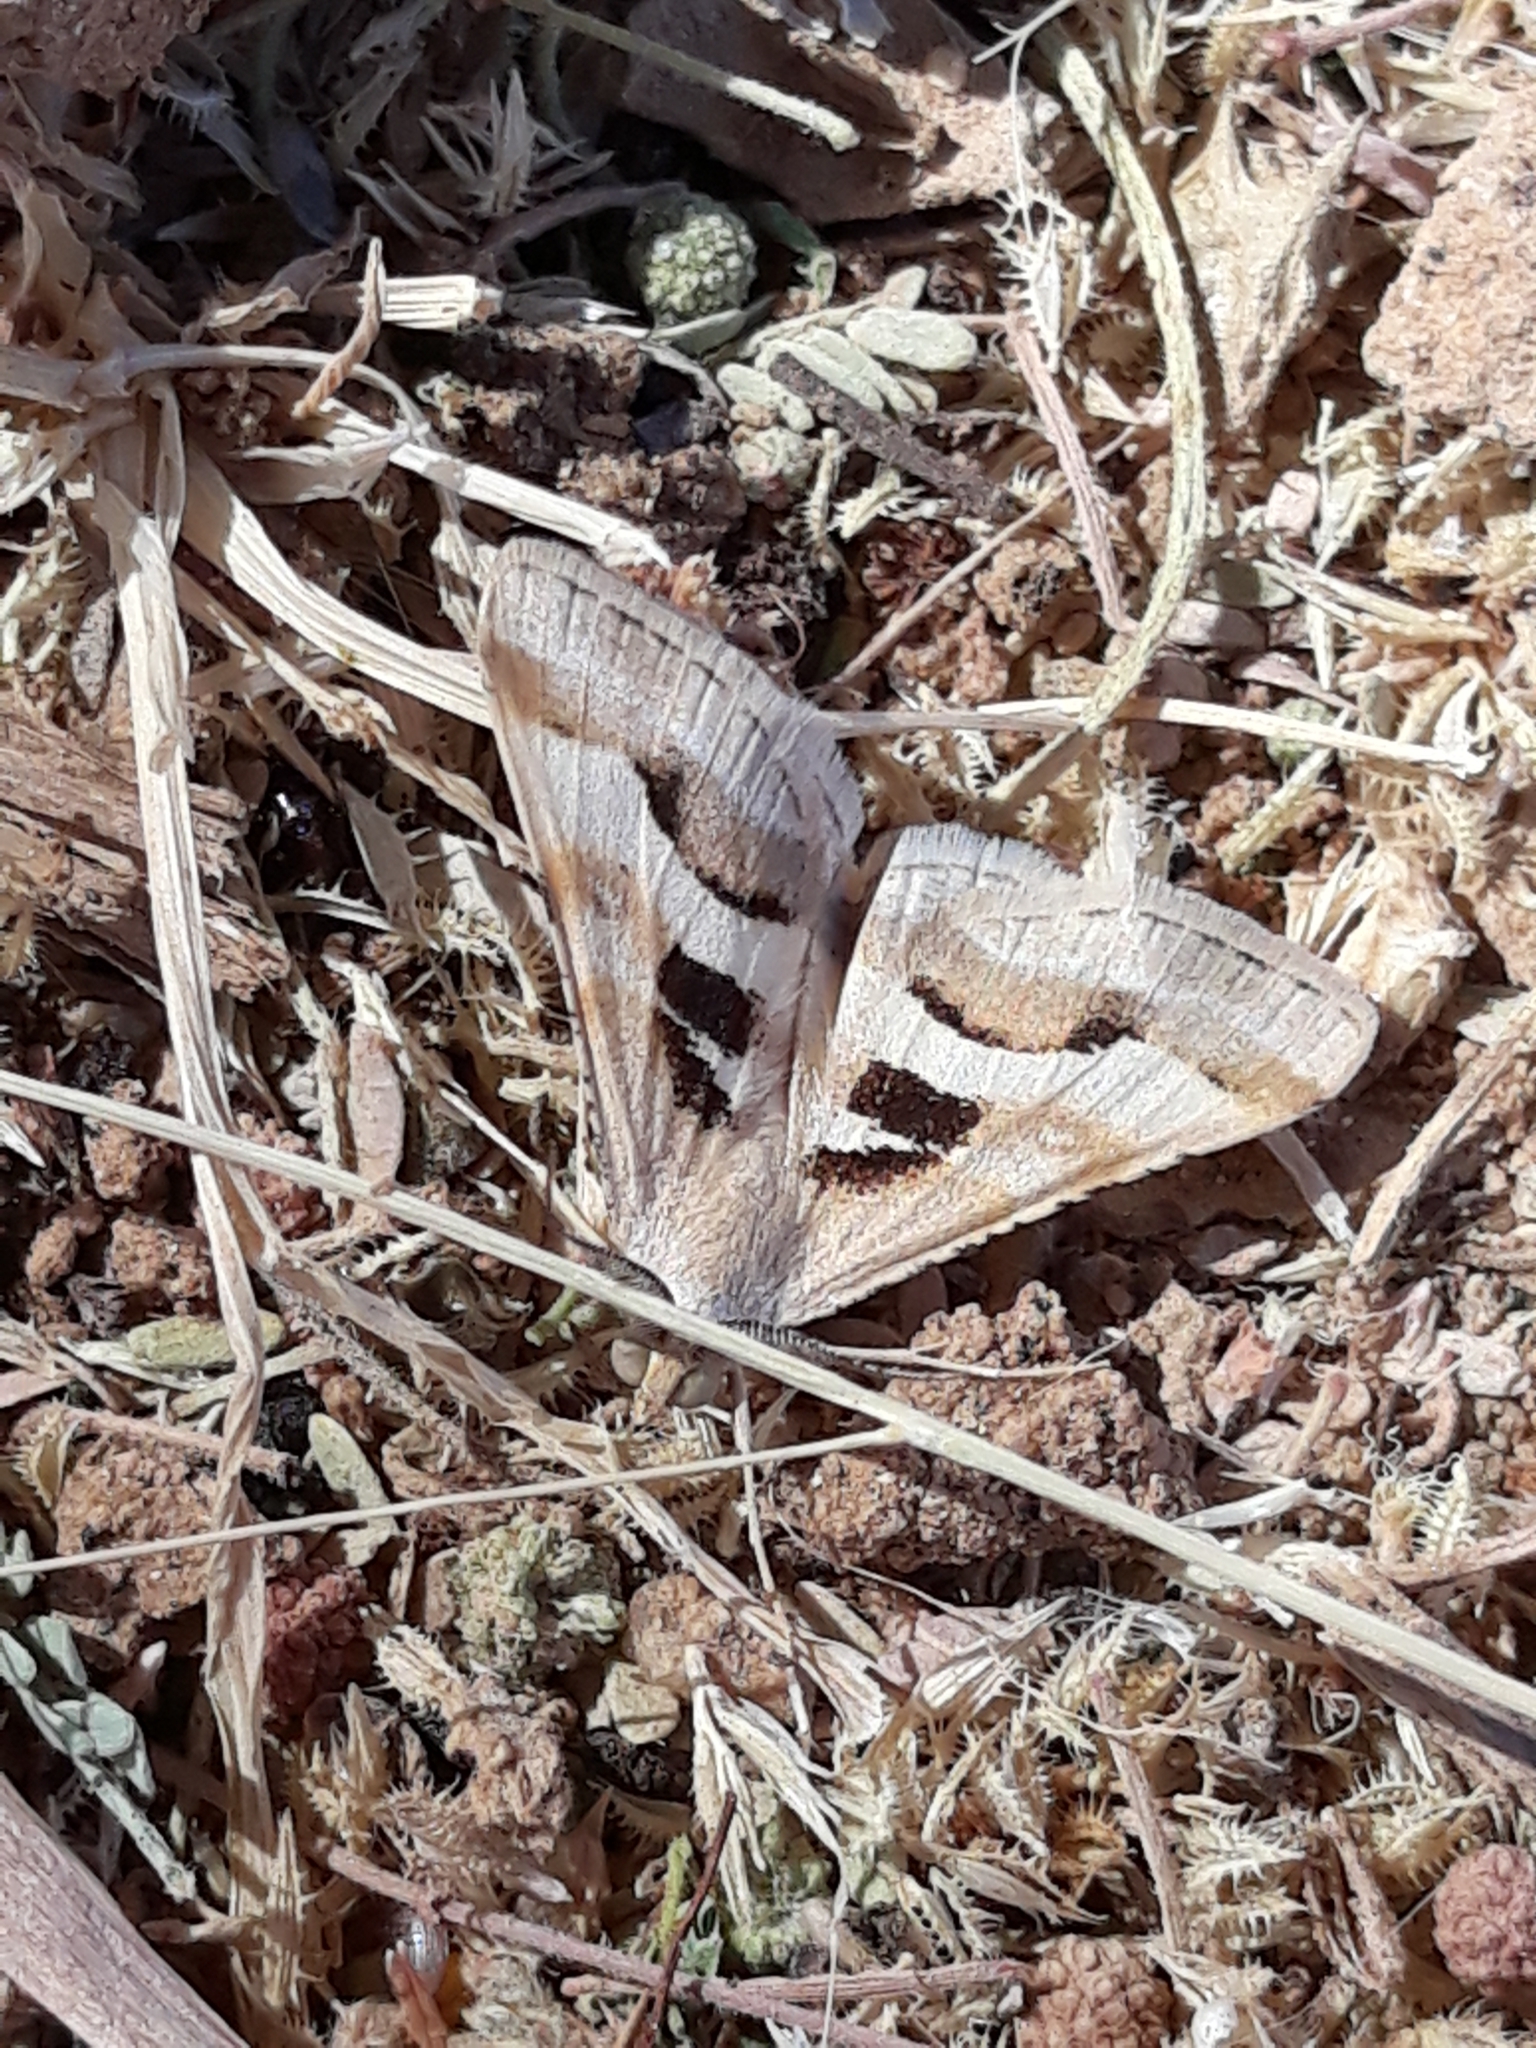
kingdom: Animalia
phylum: Arthropoda
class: Insecta
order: Lepidoptera
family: Geometridae
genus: Isturgia
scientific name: Isturgia disputaria
